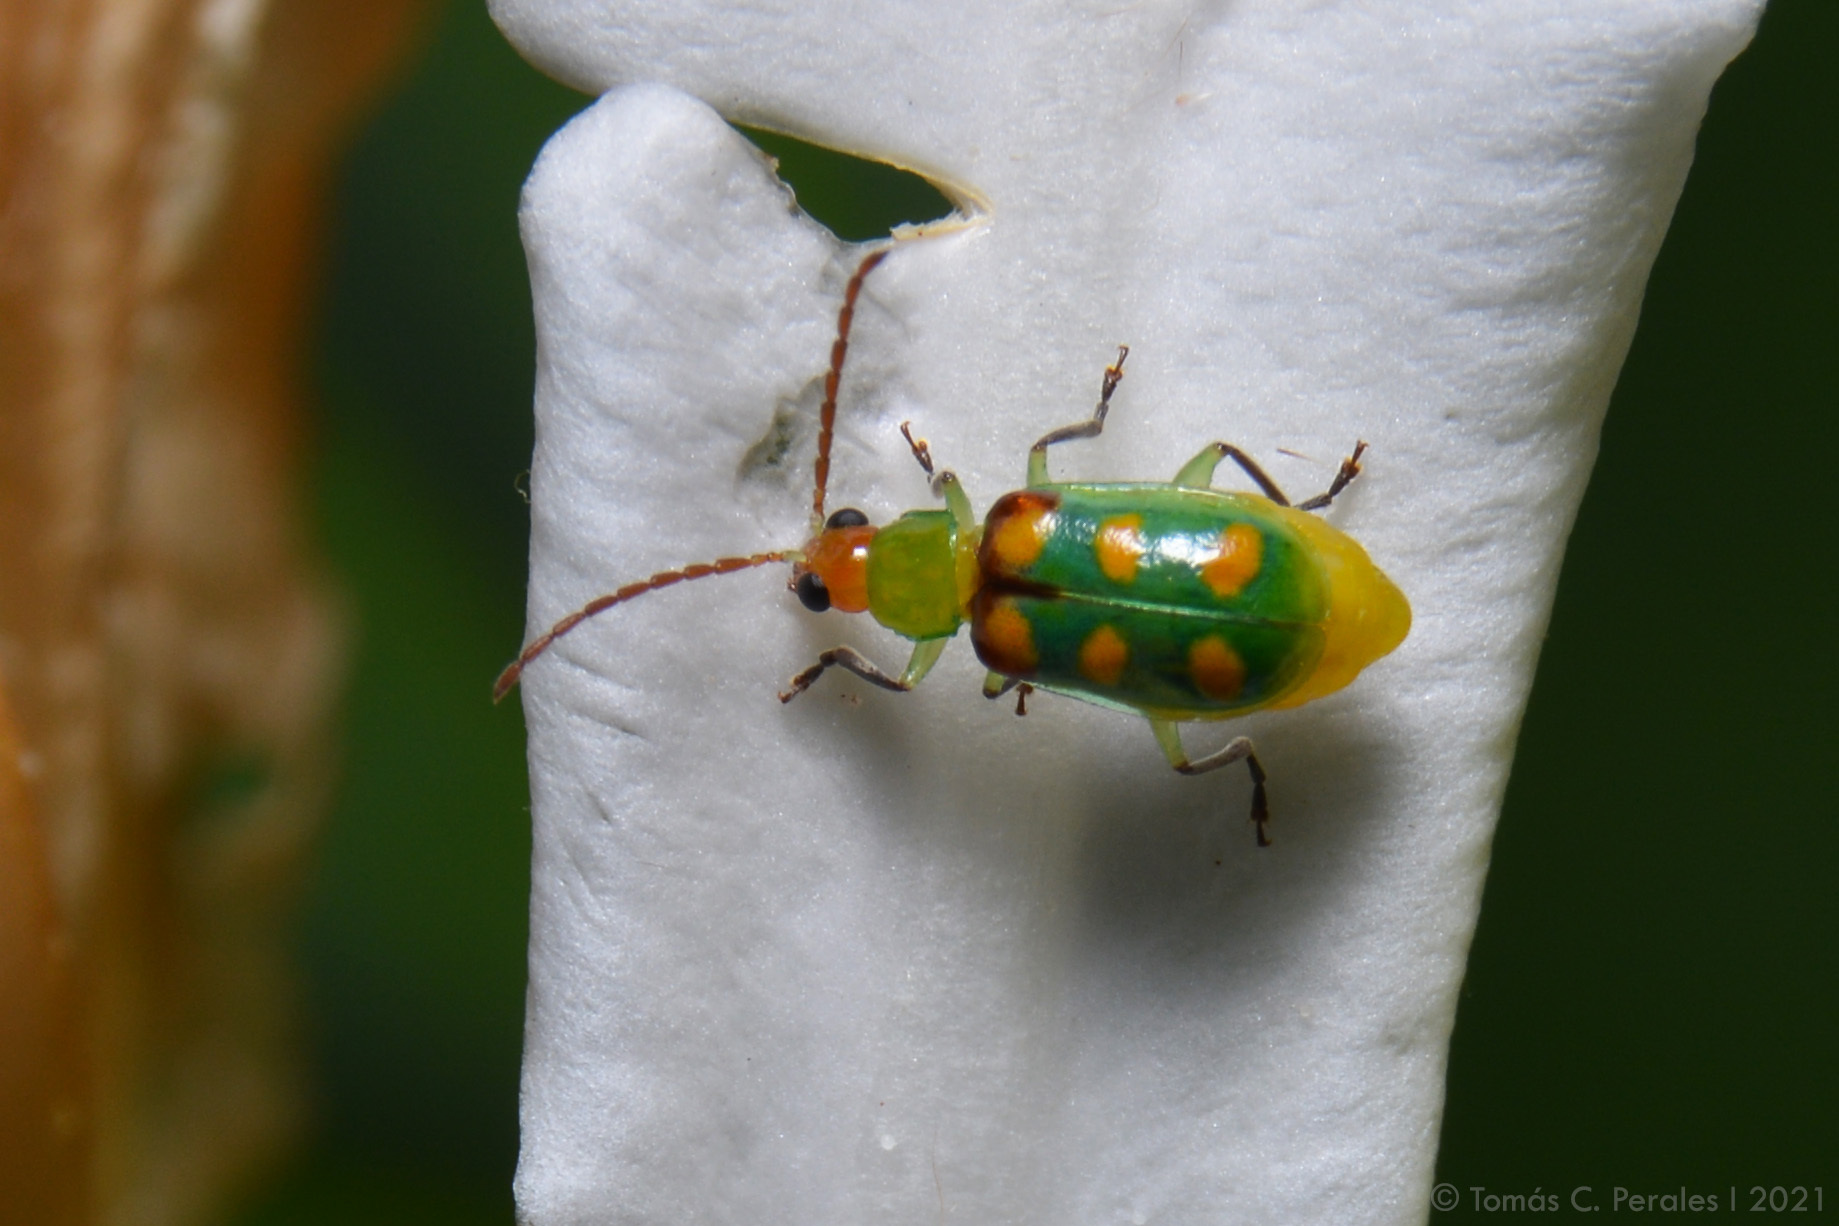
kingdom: Animalia
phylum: Arthropoda
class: Insecta
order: Coleoptera
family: Chrysomelidae
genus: Diabrotica
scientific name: Diabrotica speciosa
